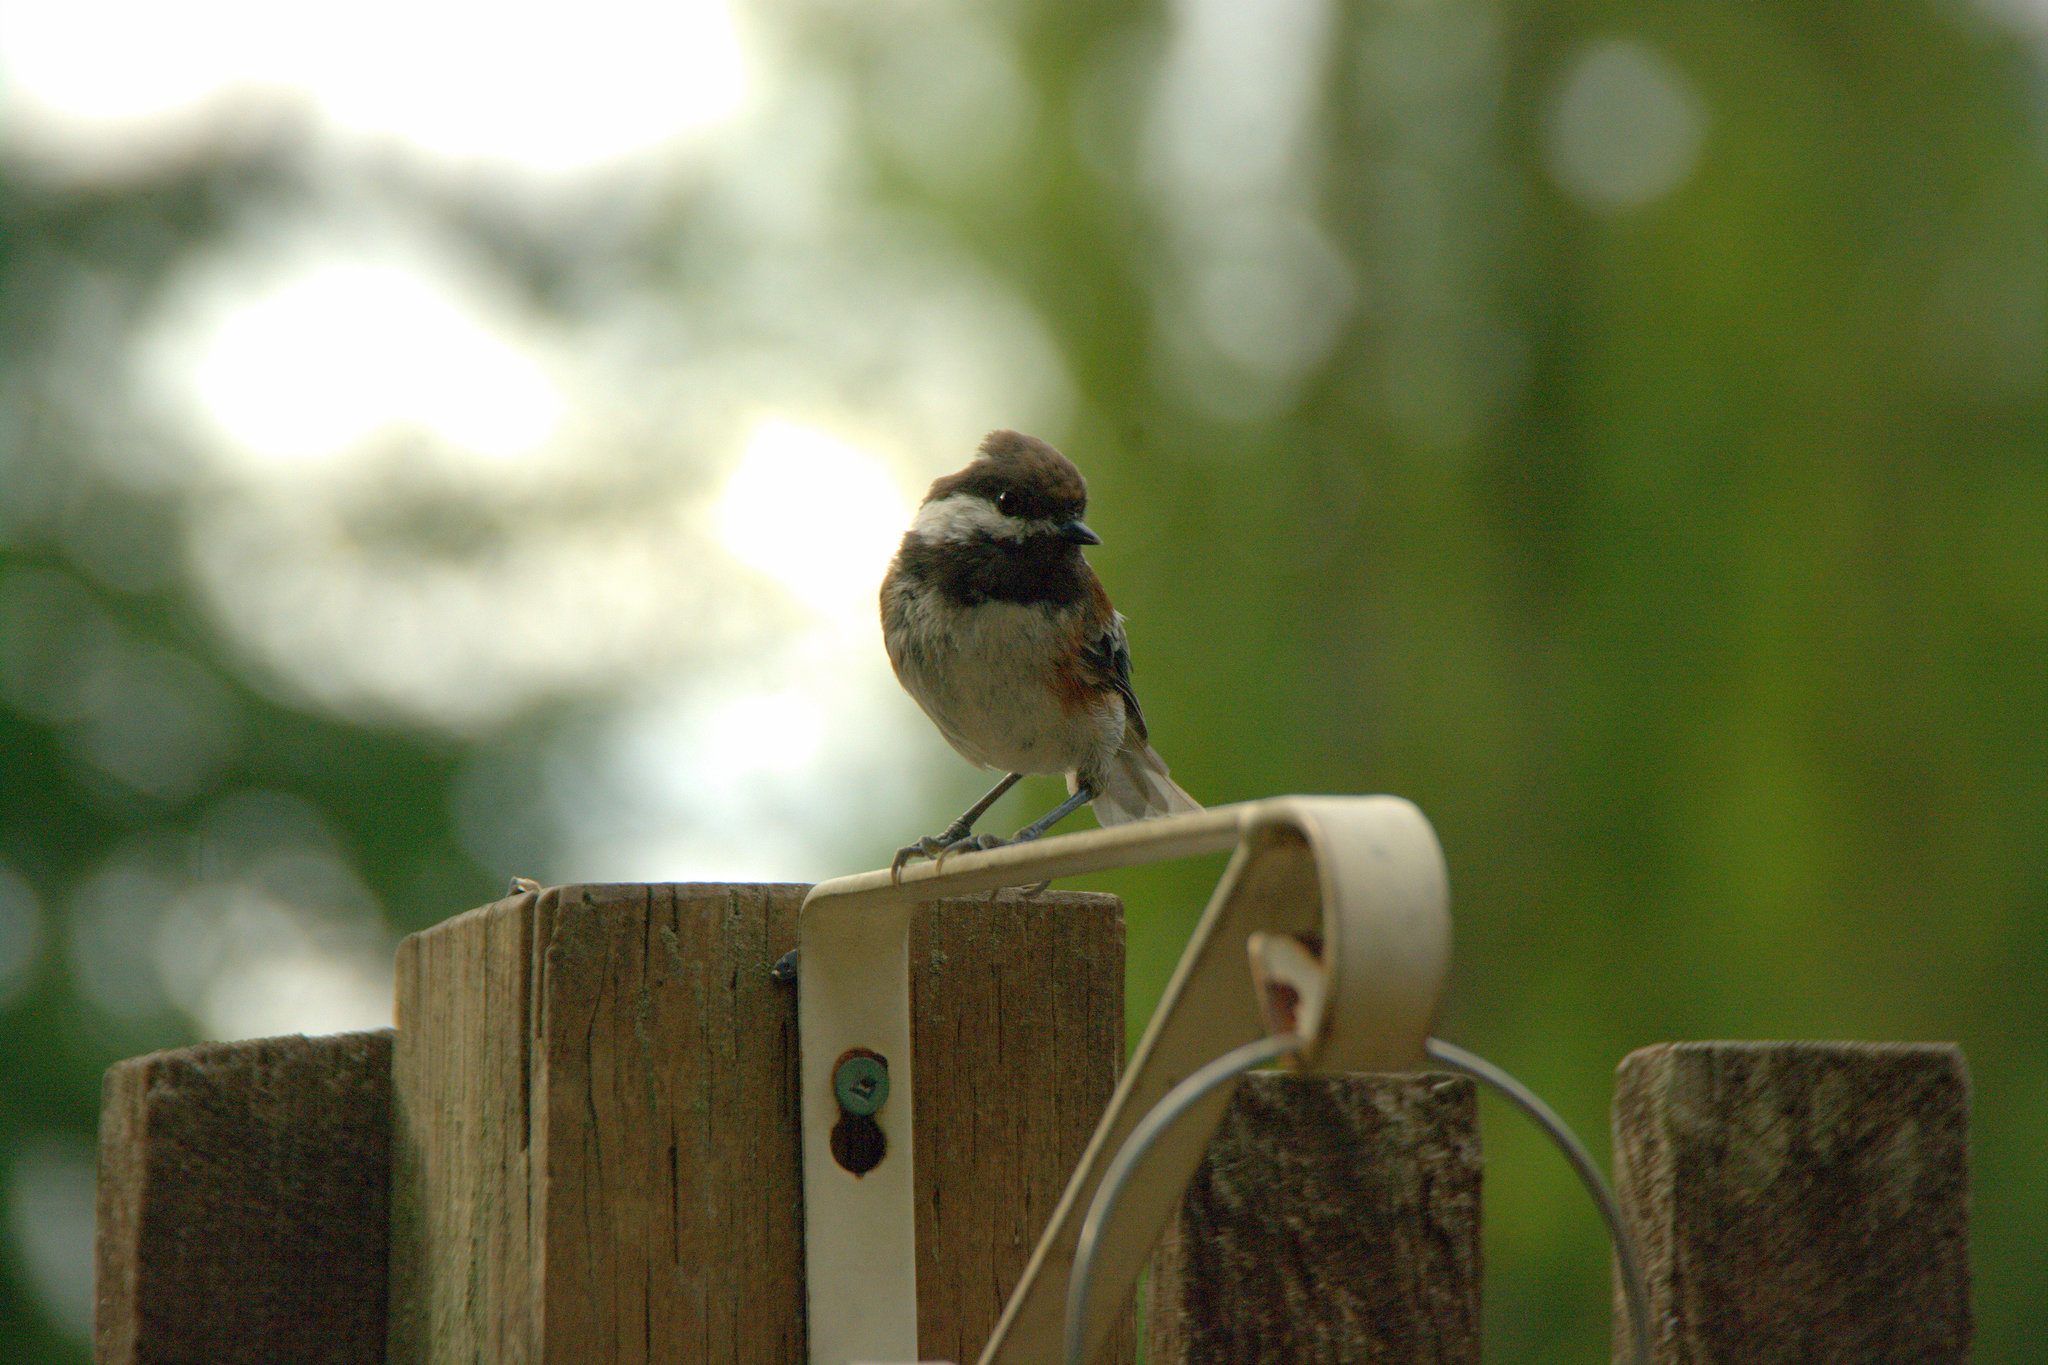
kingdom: Animalia
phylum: Chordata
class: Aves
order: Passeriformes
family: Paridae
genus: Poecile
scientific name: Poecile rufescens
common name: Chestnut-backed chickadee
